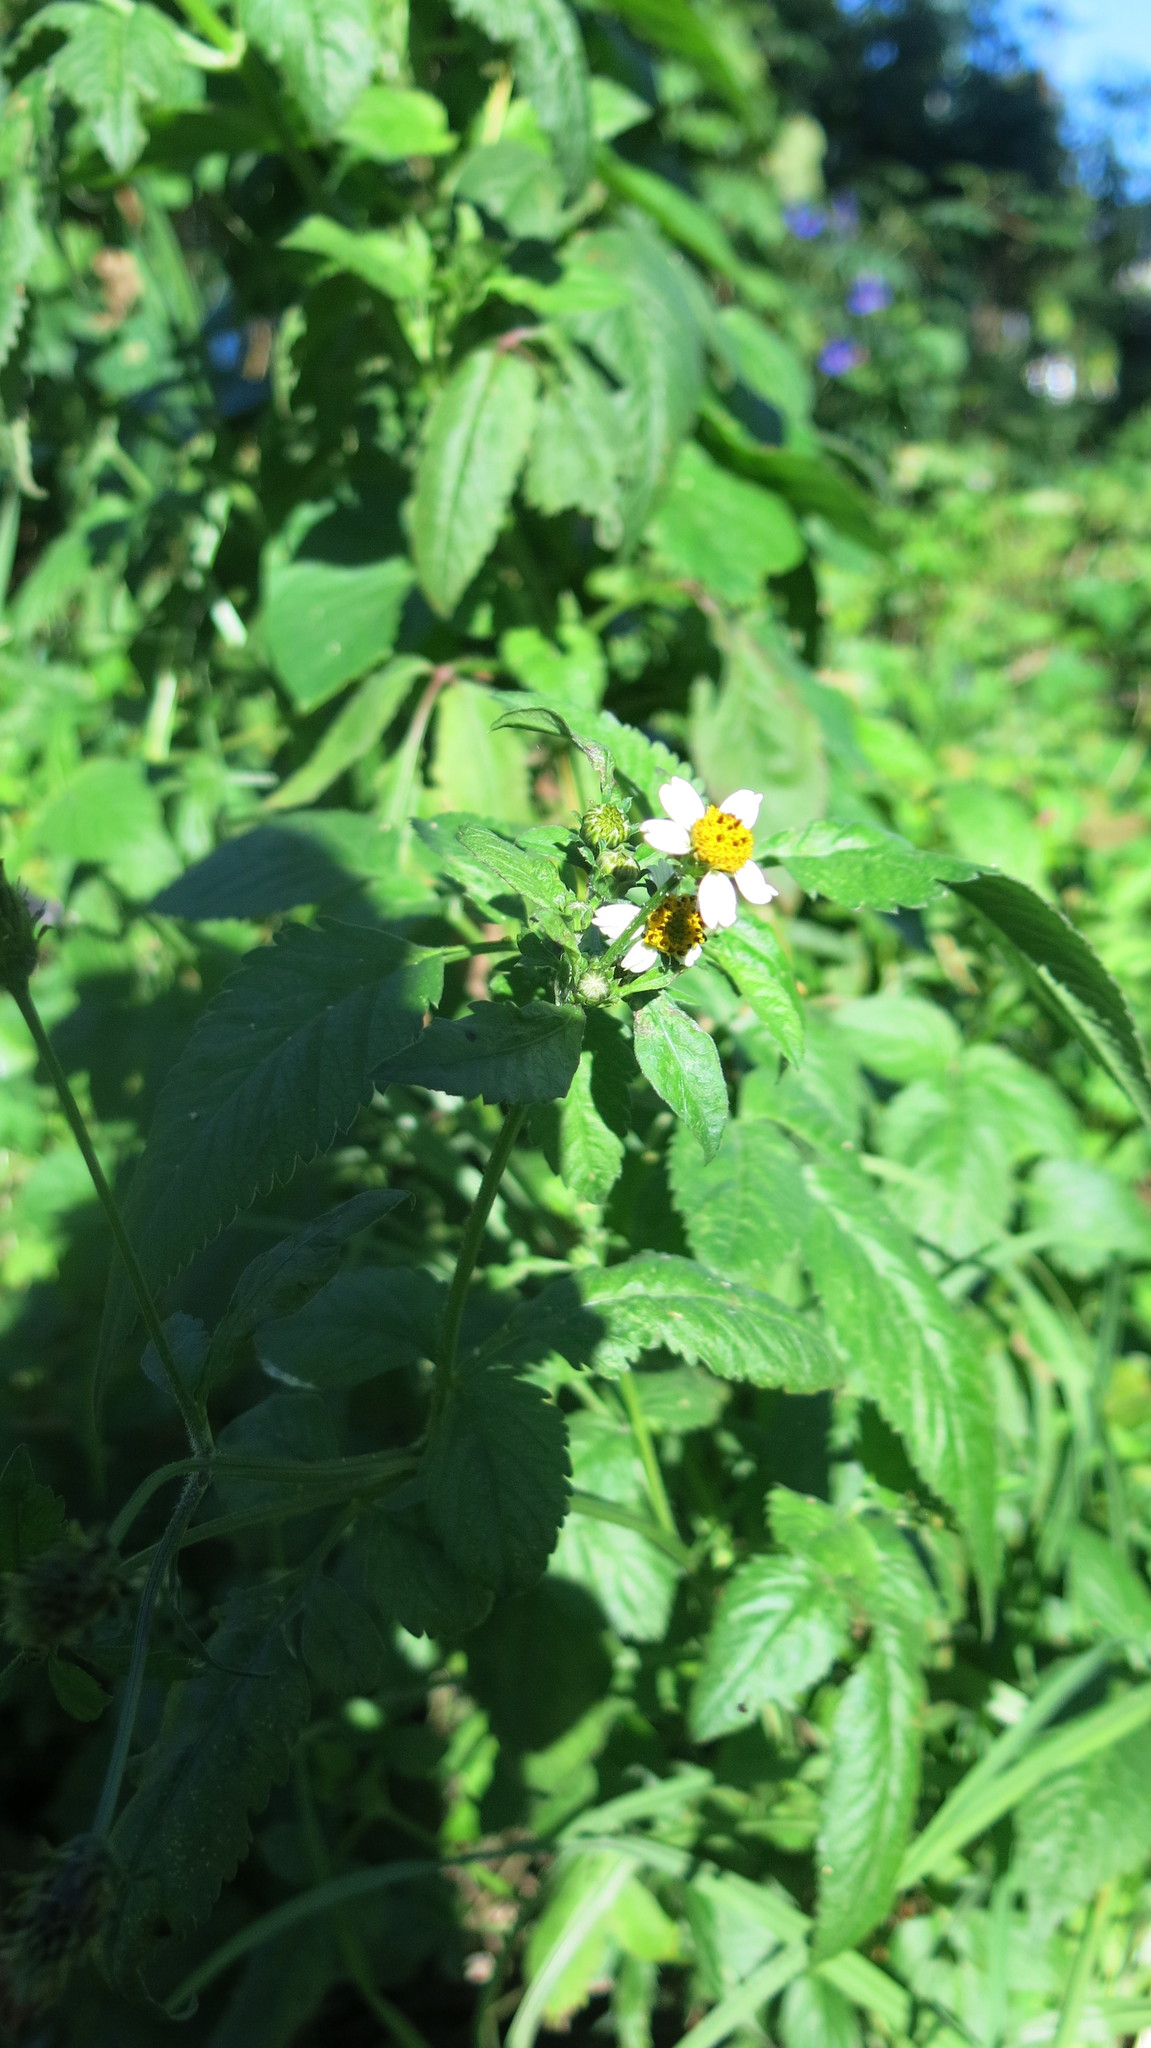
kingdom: Plantae
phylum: Tracheophyta
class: Magnoliopsida
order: Asterales
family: Asteraceae
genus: Bidens
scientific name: Bidens pilosa
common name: Black-jack
